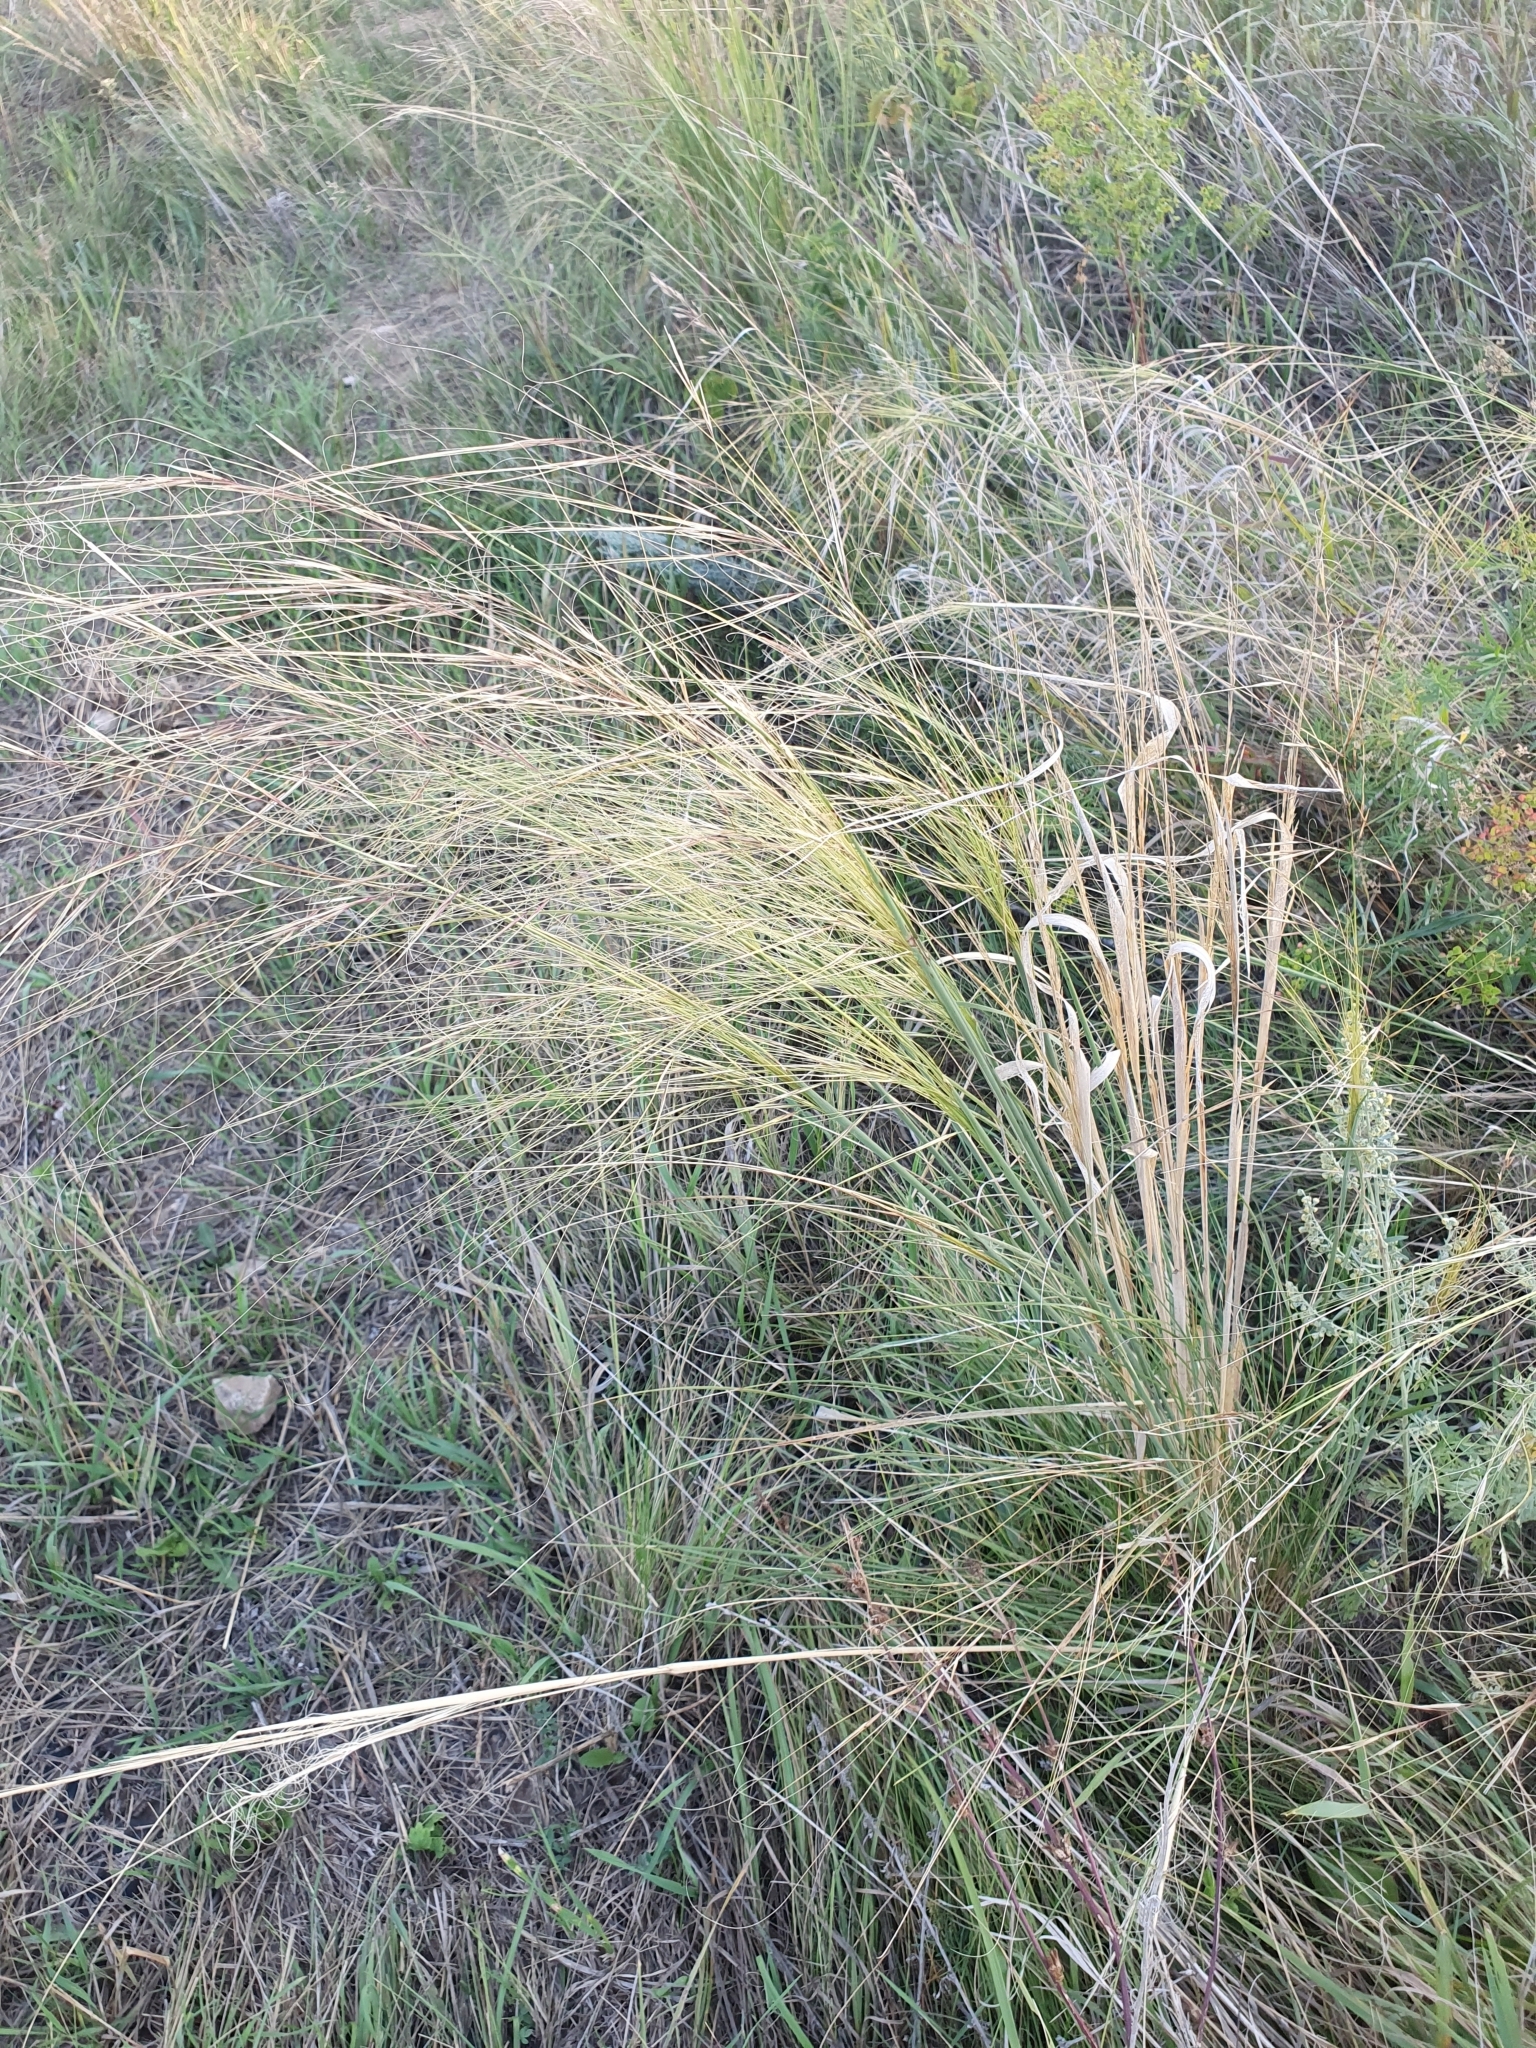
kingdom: Plantae
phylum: Tracheophyta
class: Liliopsida
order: Poales
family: Poaceae
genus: Stipa
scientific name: Stipa capillata
